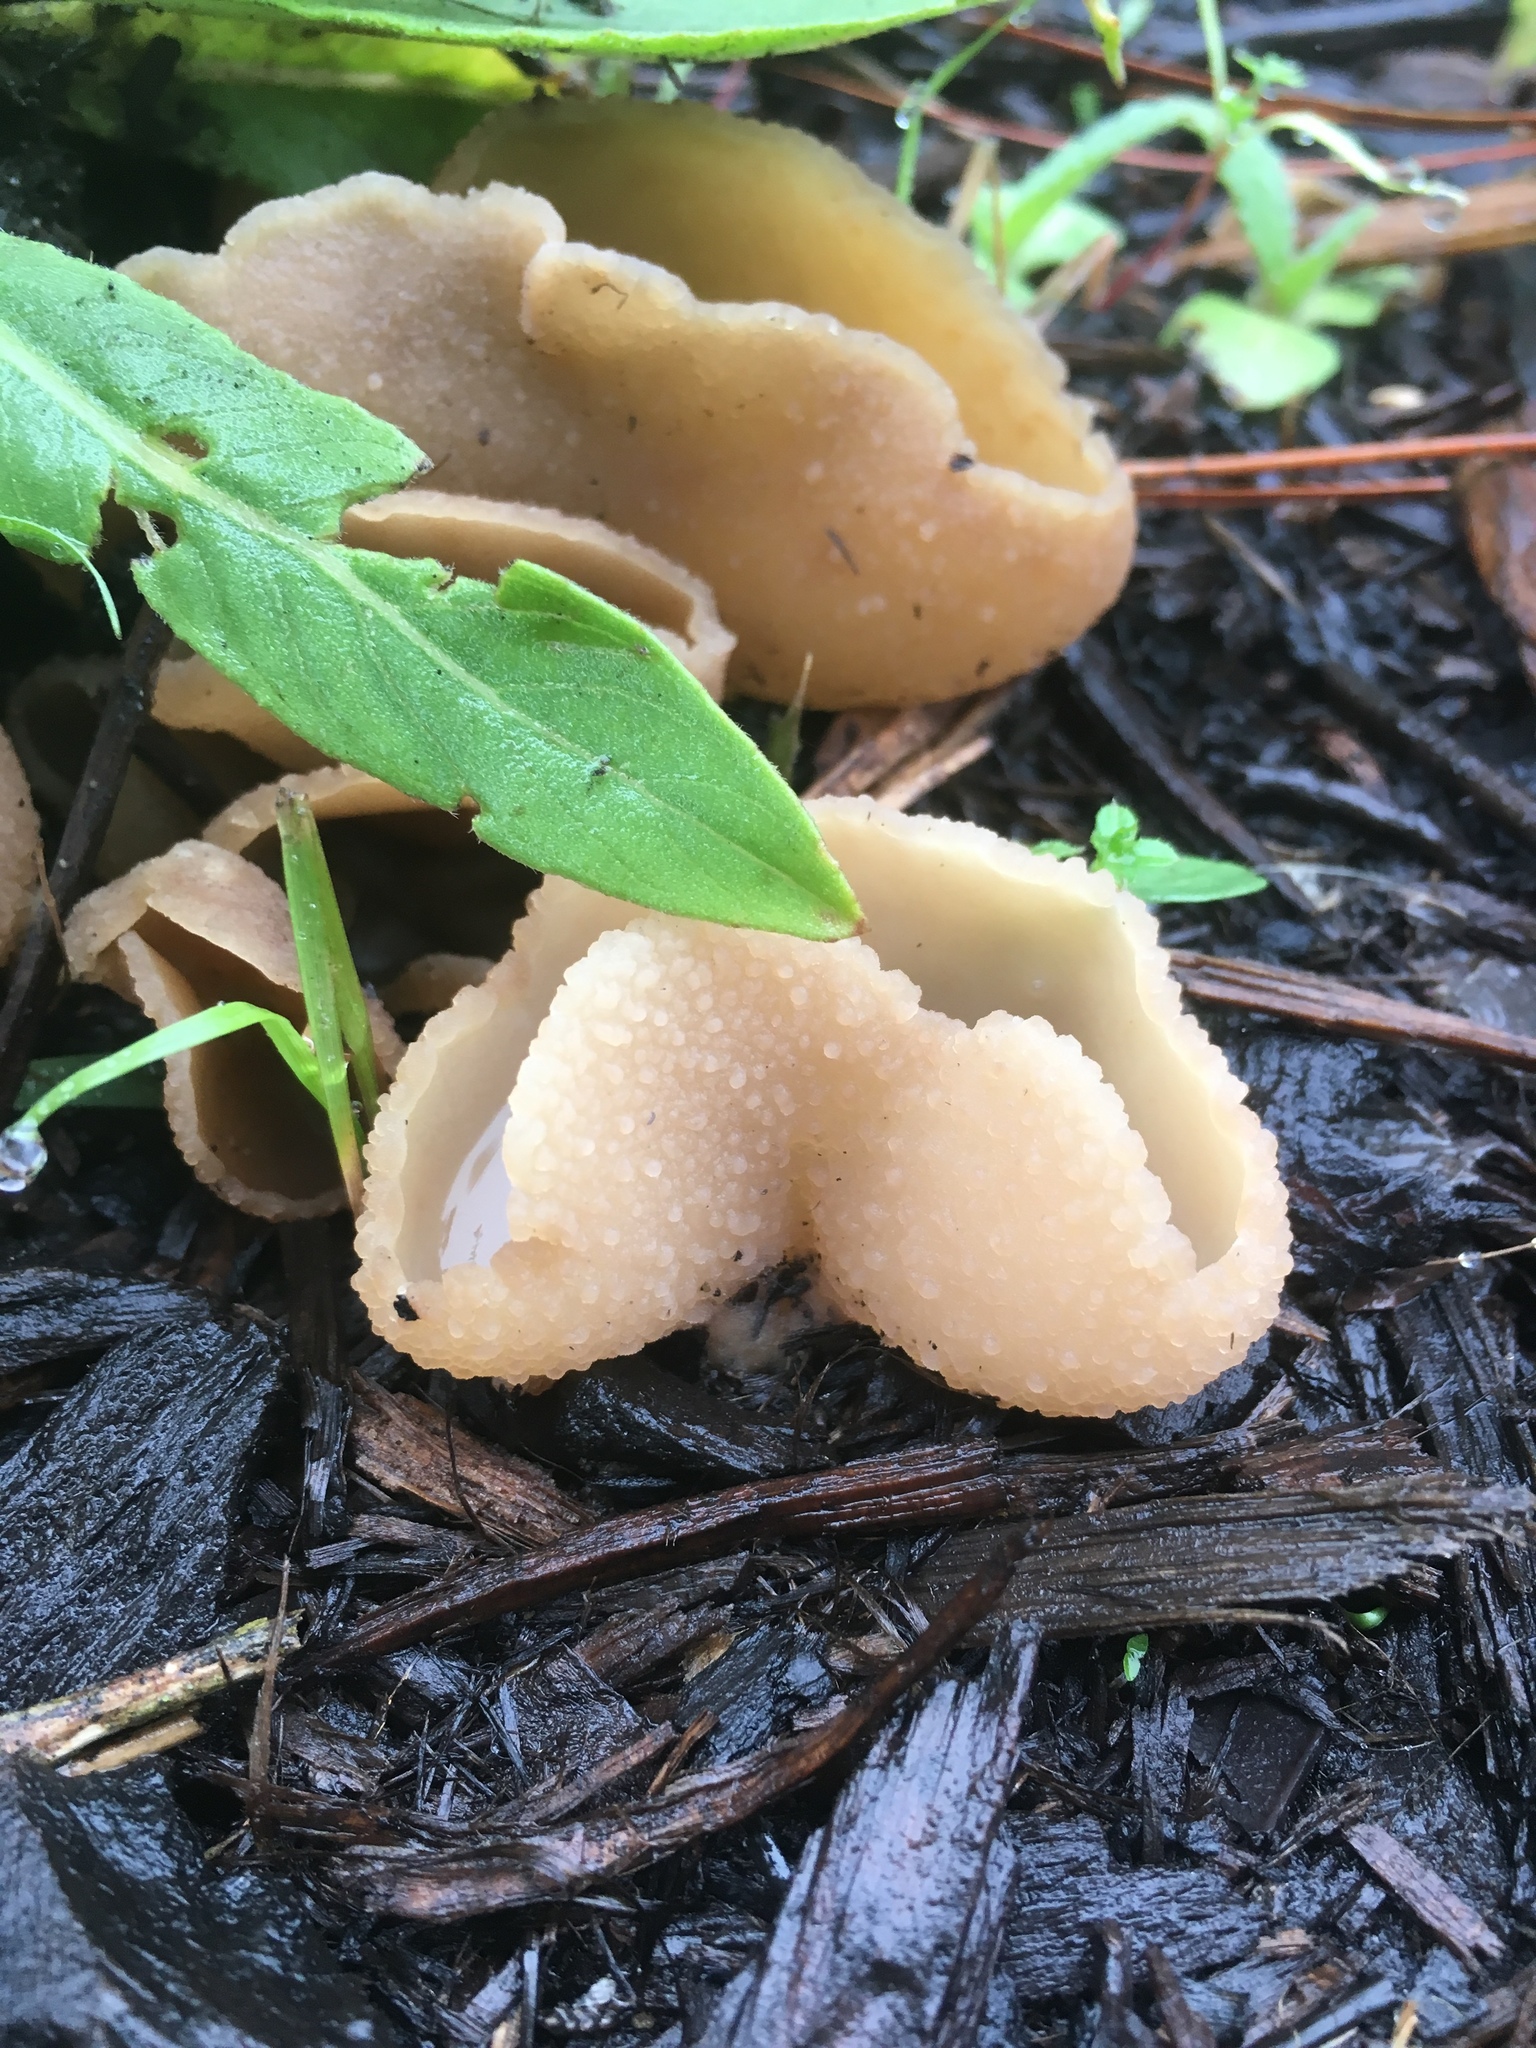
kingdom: Fungi
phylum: Ascomycota
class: Pezizomycetes
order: Pezizales
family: Pezizaceae
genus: Peziza
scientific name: Peziza varia
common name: Layered cup
